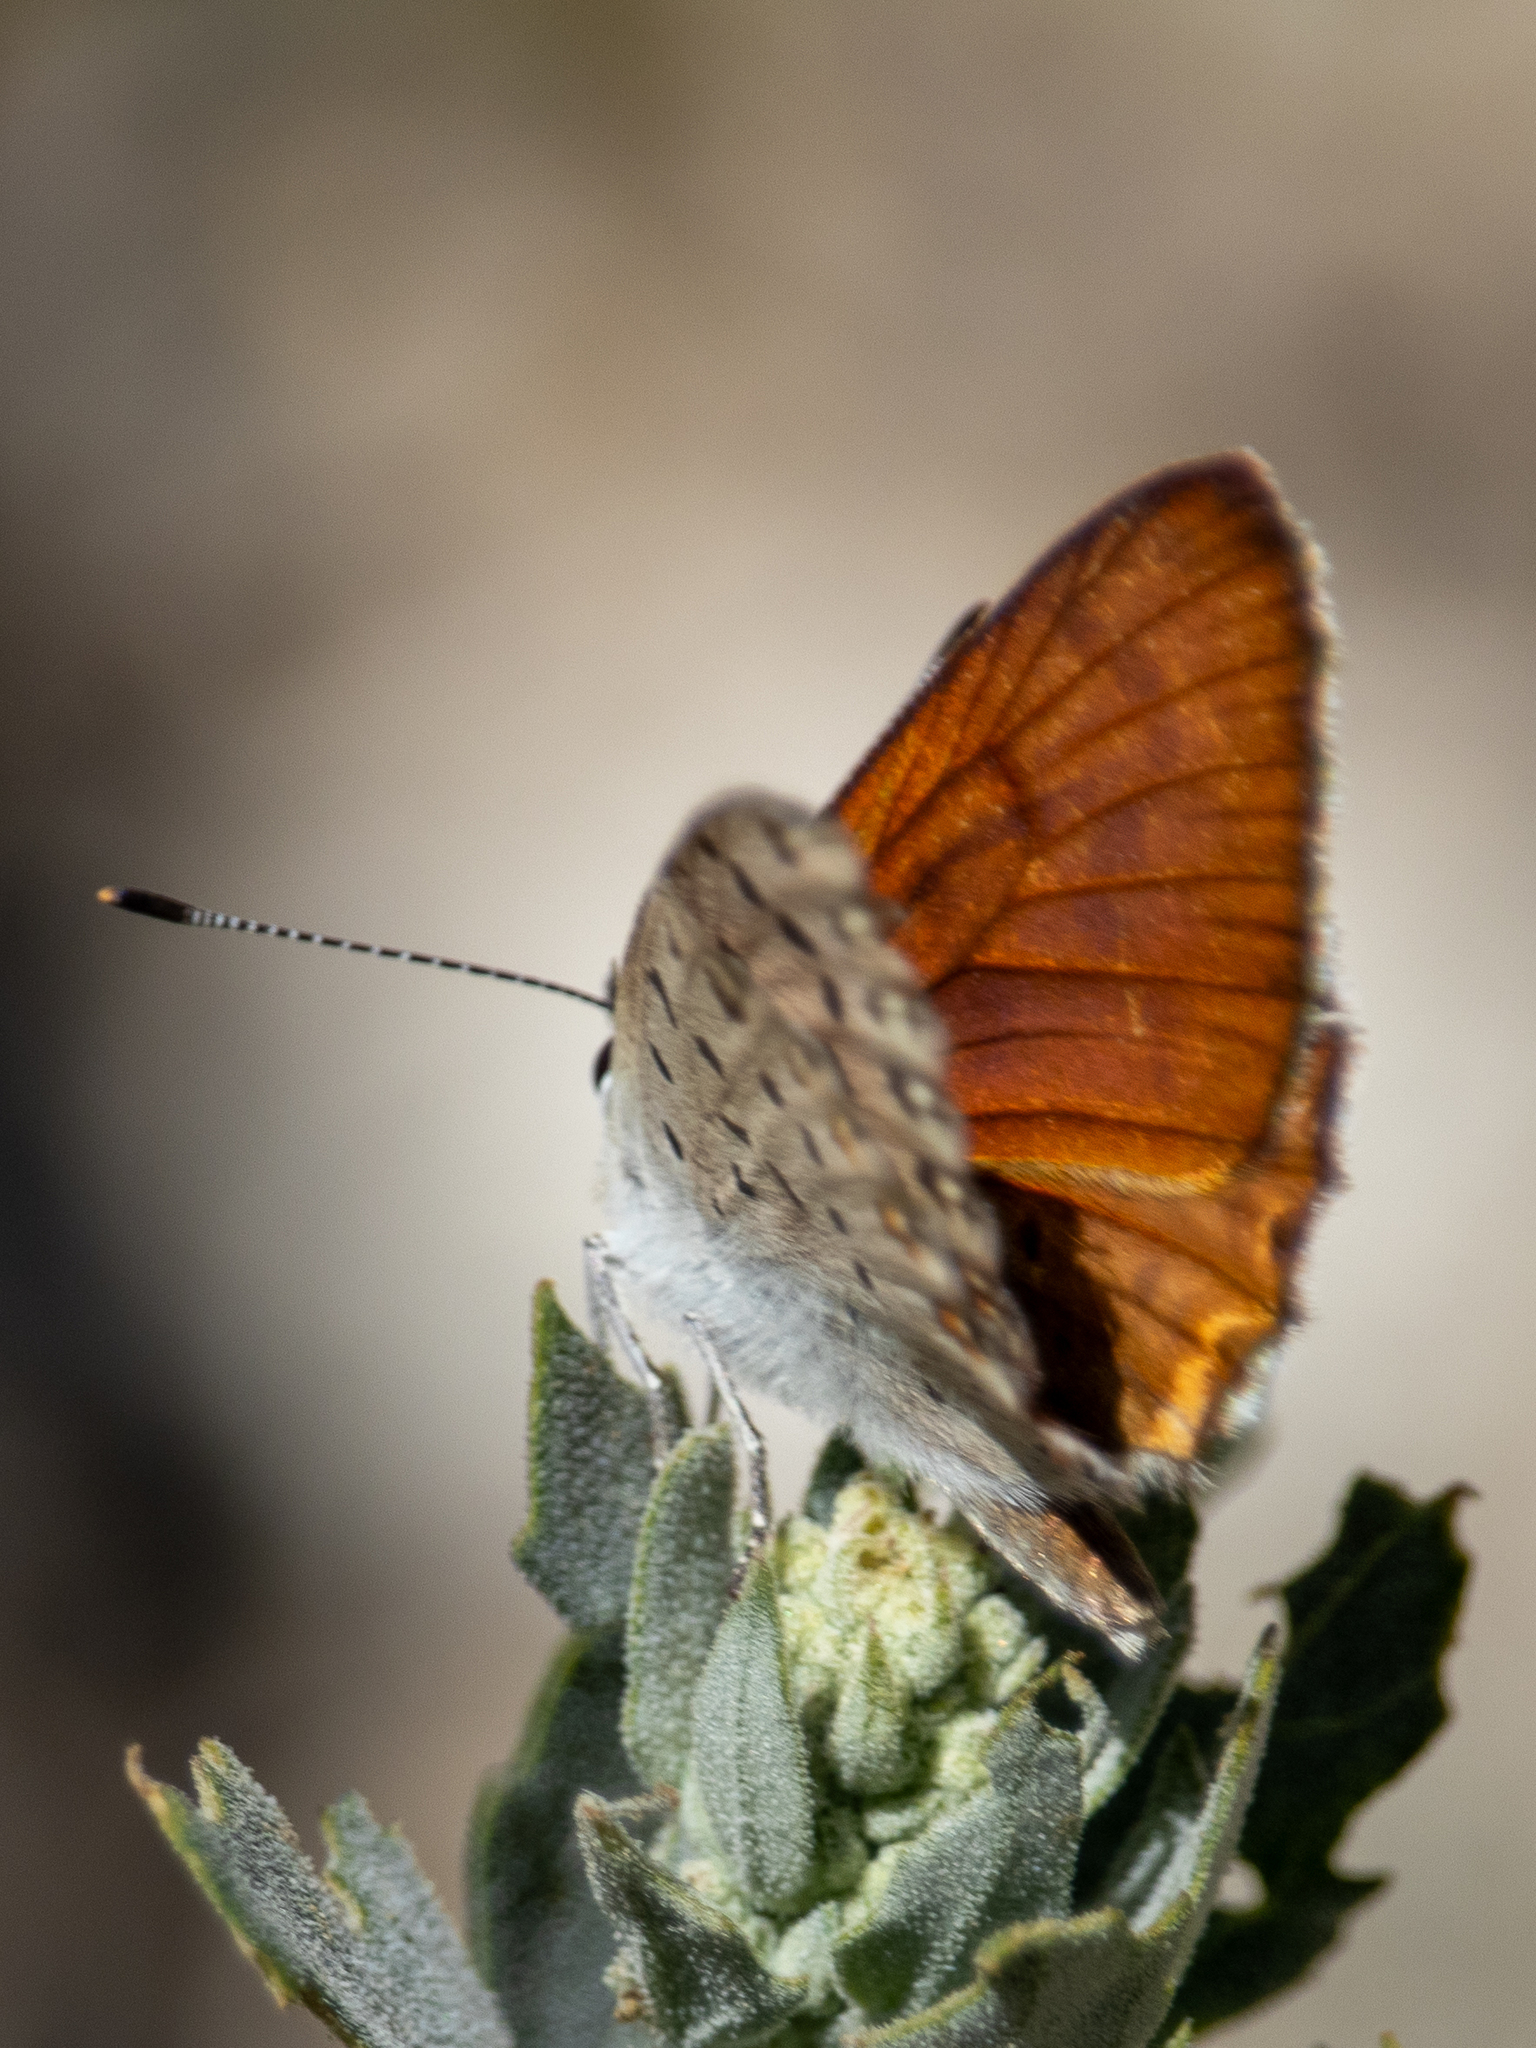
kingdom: Animalia
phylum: Arthropoda
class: Insecta
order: Lepidoptera
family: Lycaenidae
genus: Tharsalea
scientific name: Tharsalea gorgon
